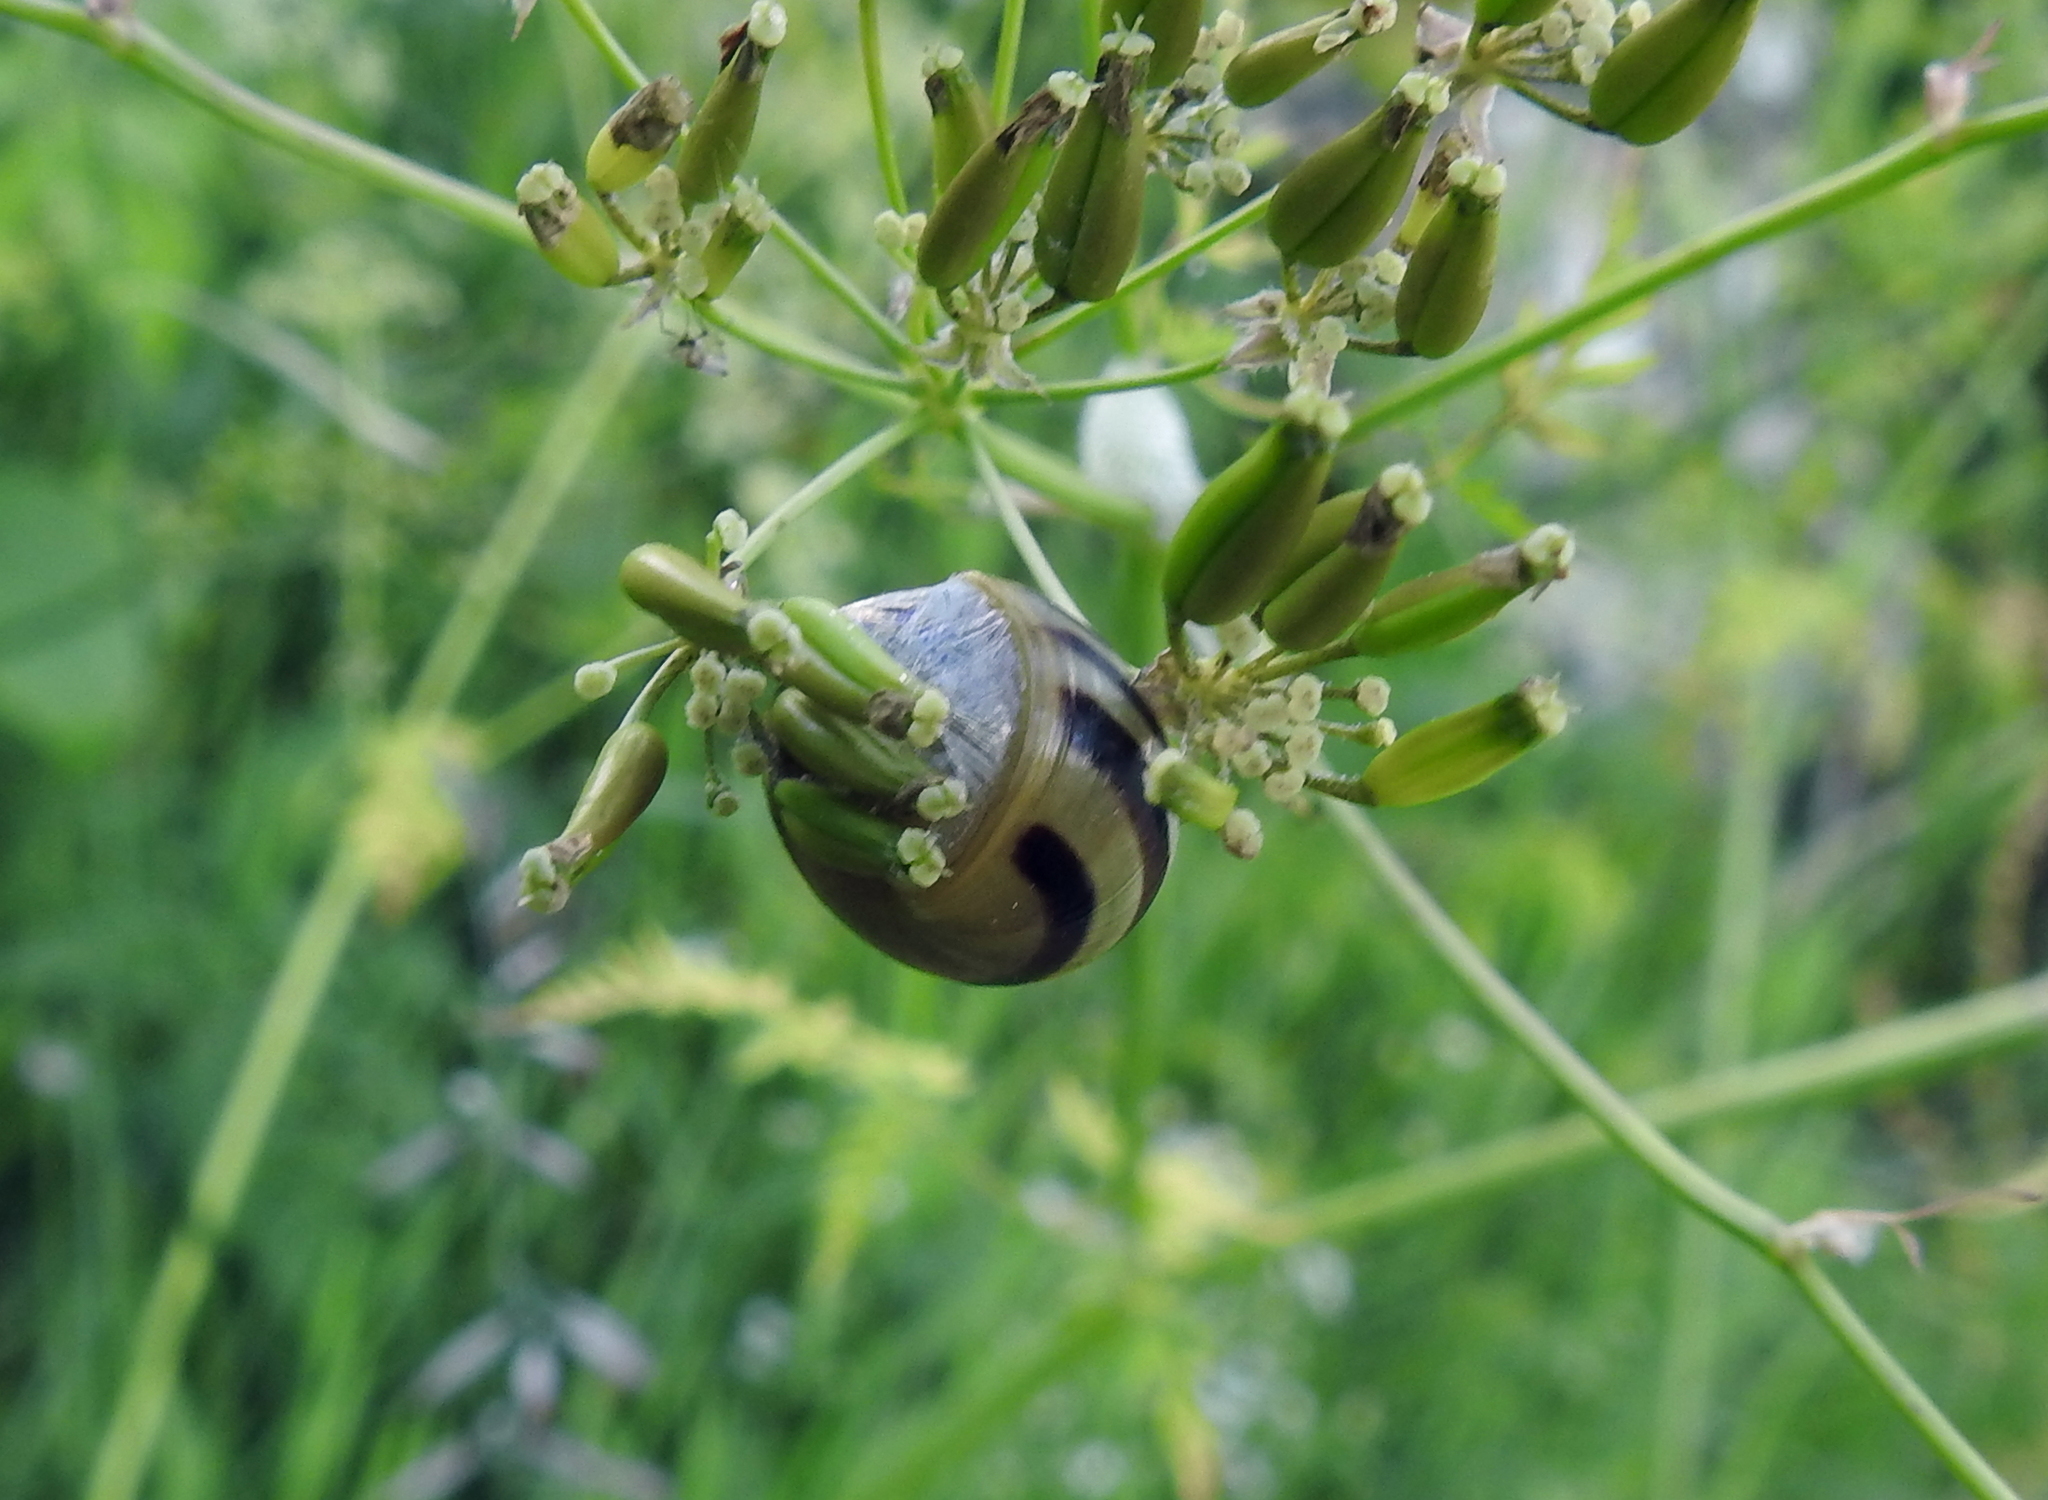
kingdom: Animalia
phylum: Mollusca
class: Gastropoda
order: Stylommatophora
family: Helicidae
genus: Cepaea
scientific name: Cepaea
